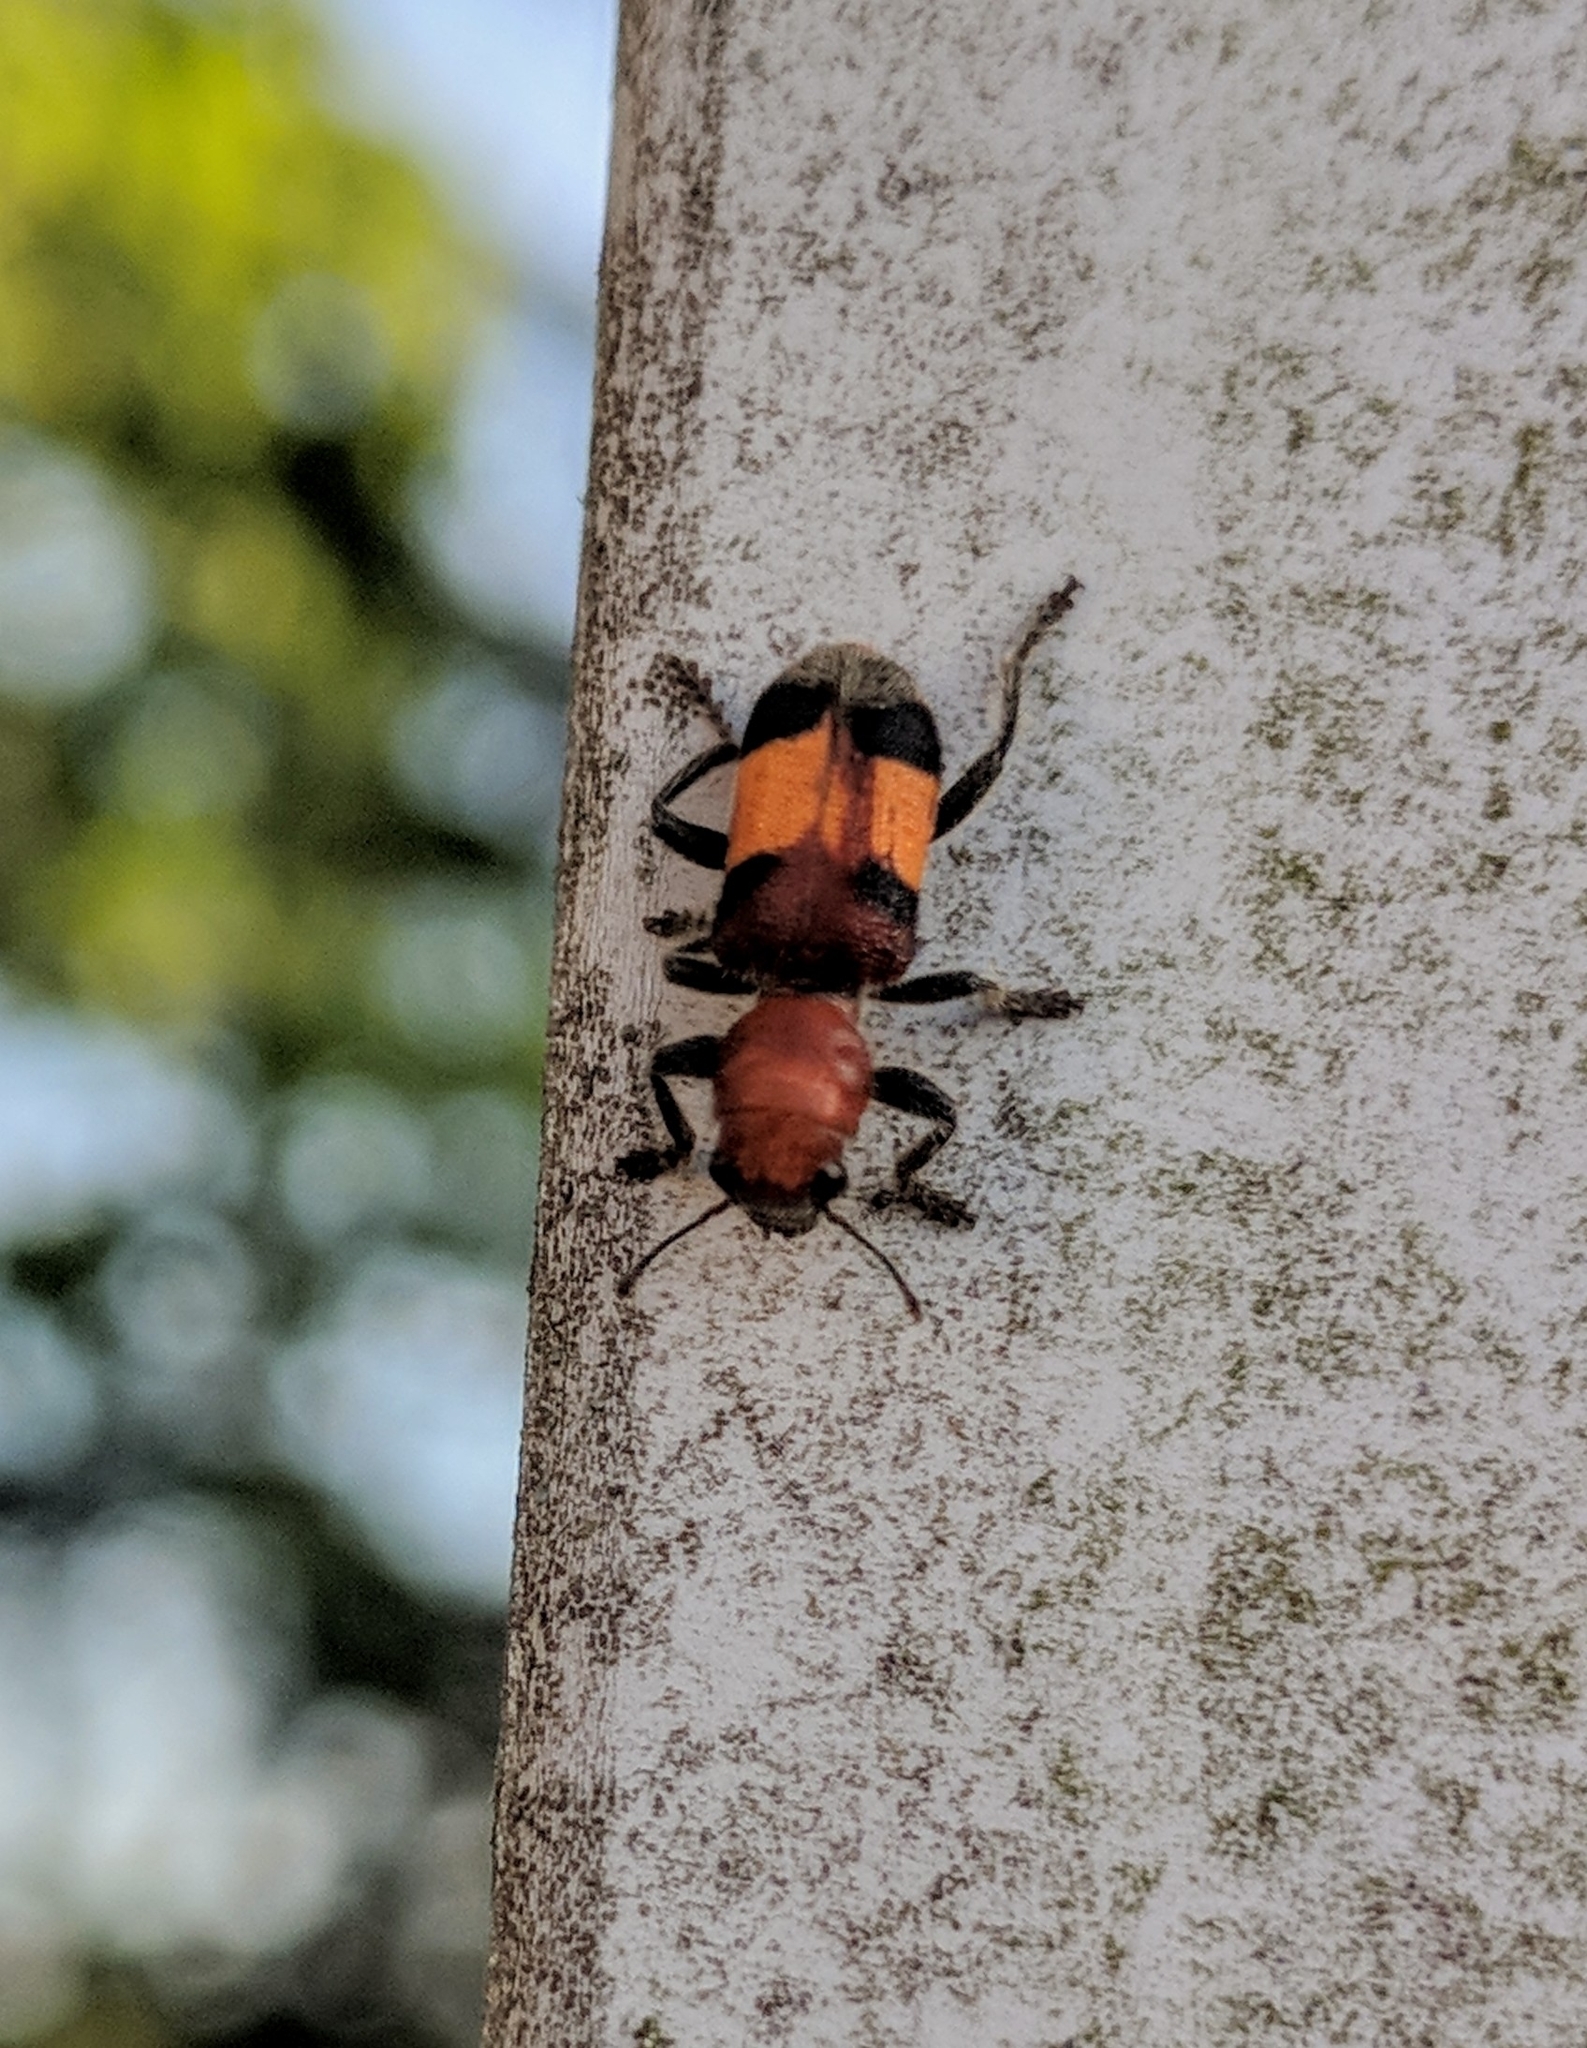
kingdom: Animalia
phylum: Arthropoda
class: Insecta
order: Coleoptera
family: Cleridae
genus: Enoclerus
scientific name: Enoclerus ichneumoneus
